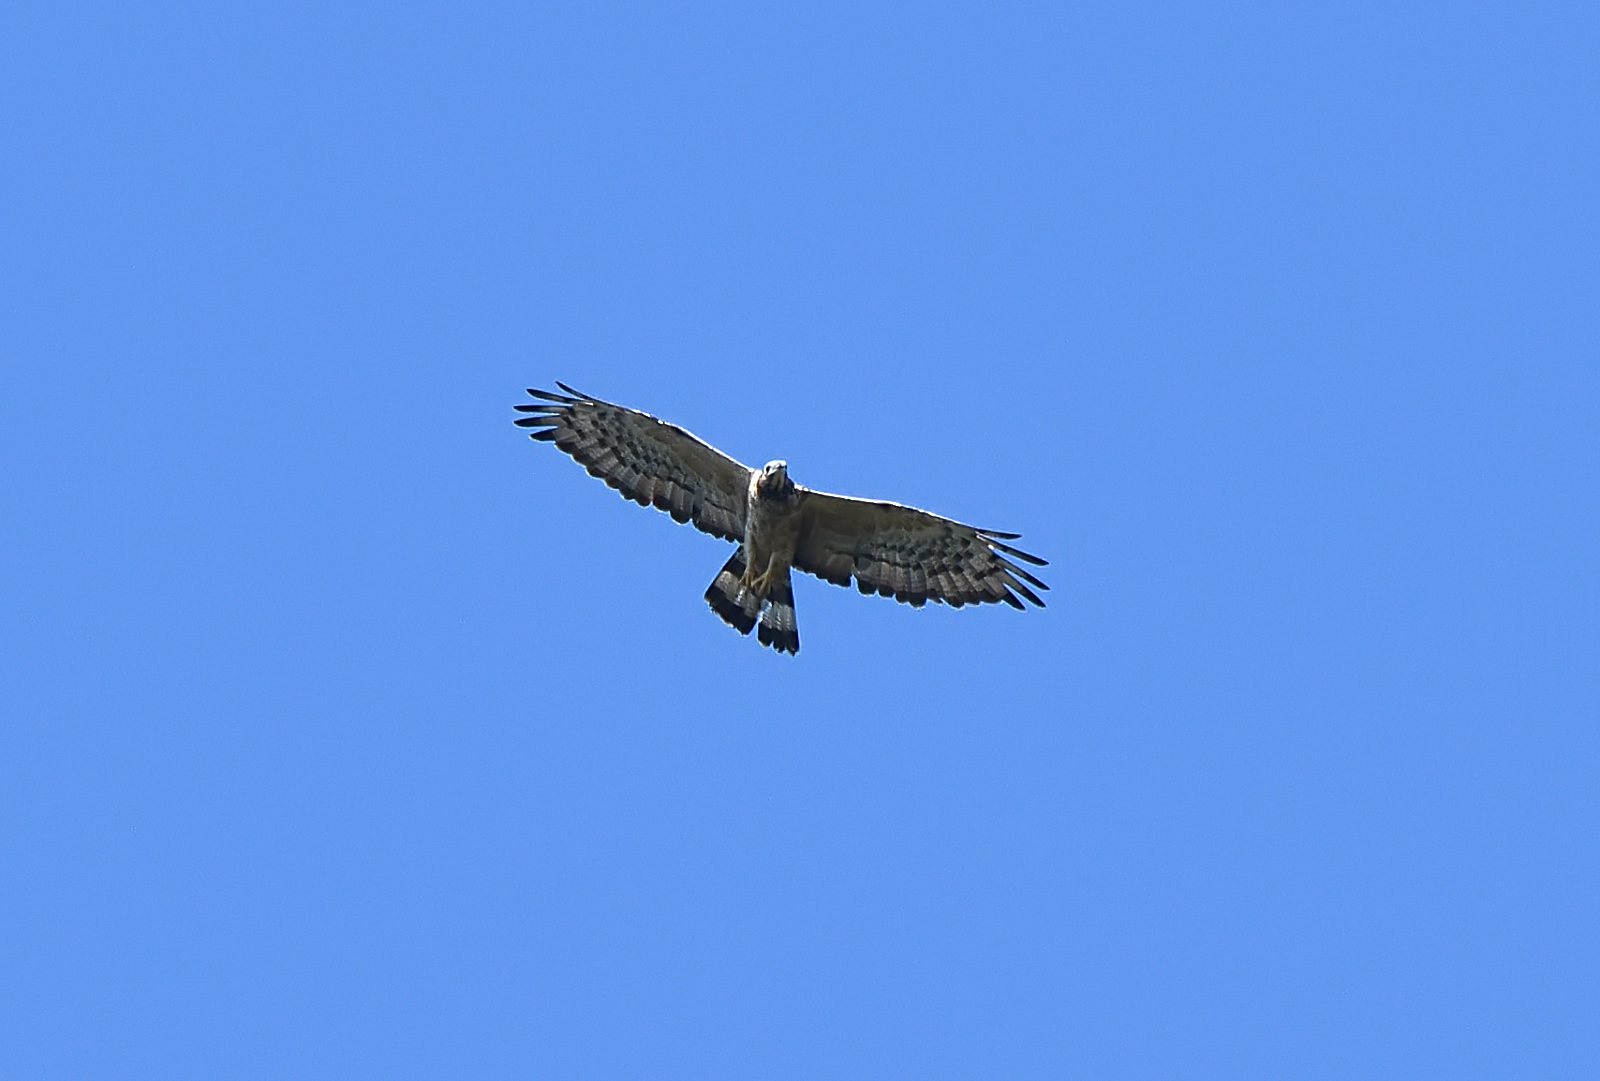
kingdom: Animalia
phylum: Chordata
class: Aves
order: Accipitriformes
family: Accipitridae
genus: Pernis
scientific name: Pernis ptilorhynchus
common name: Crested honey buzzard
